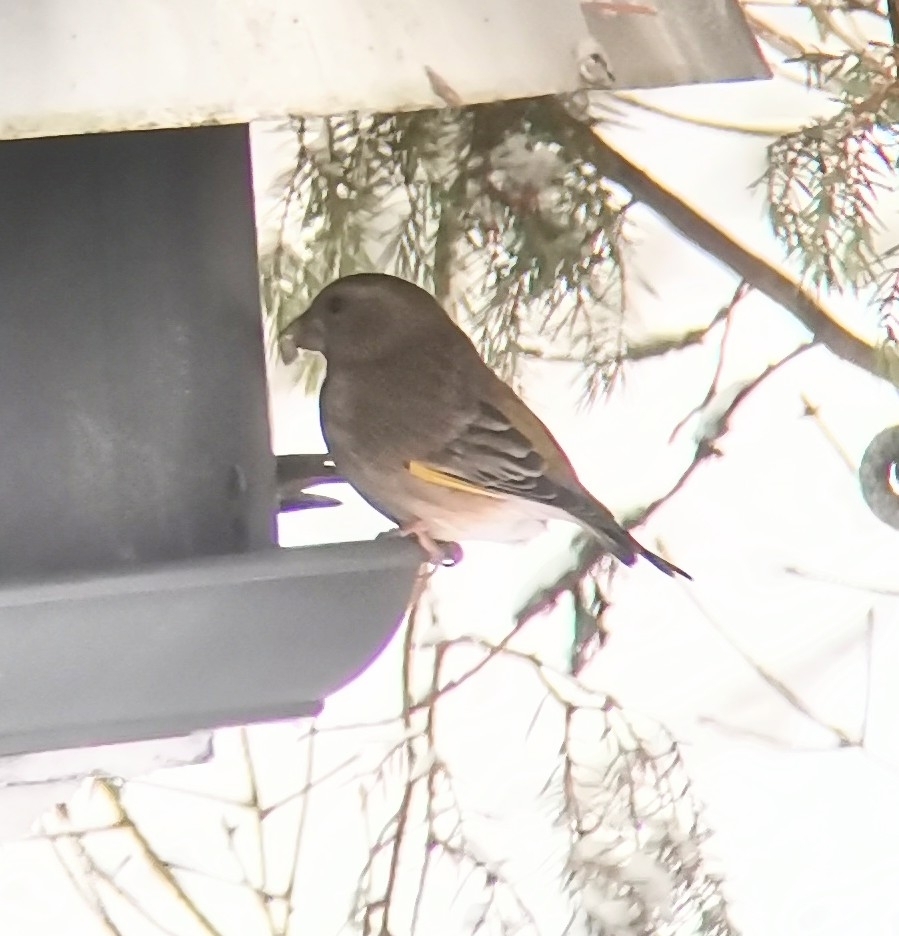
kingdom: Plantae
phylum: Tracheophyta
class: Liliopsida
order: Poales
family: Poaceae
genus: Chloris
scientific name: Chloris chloris
